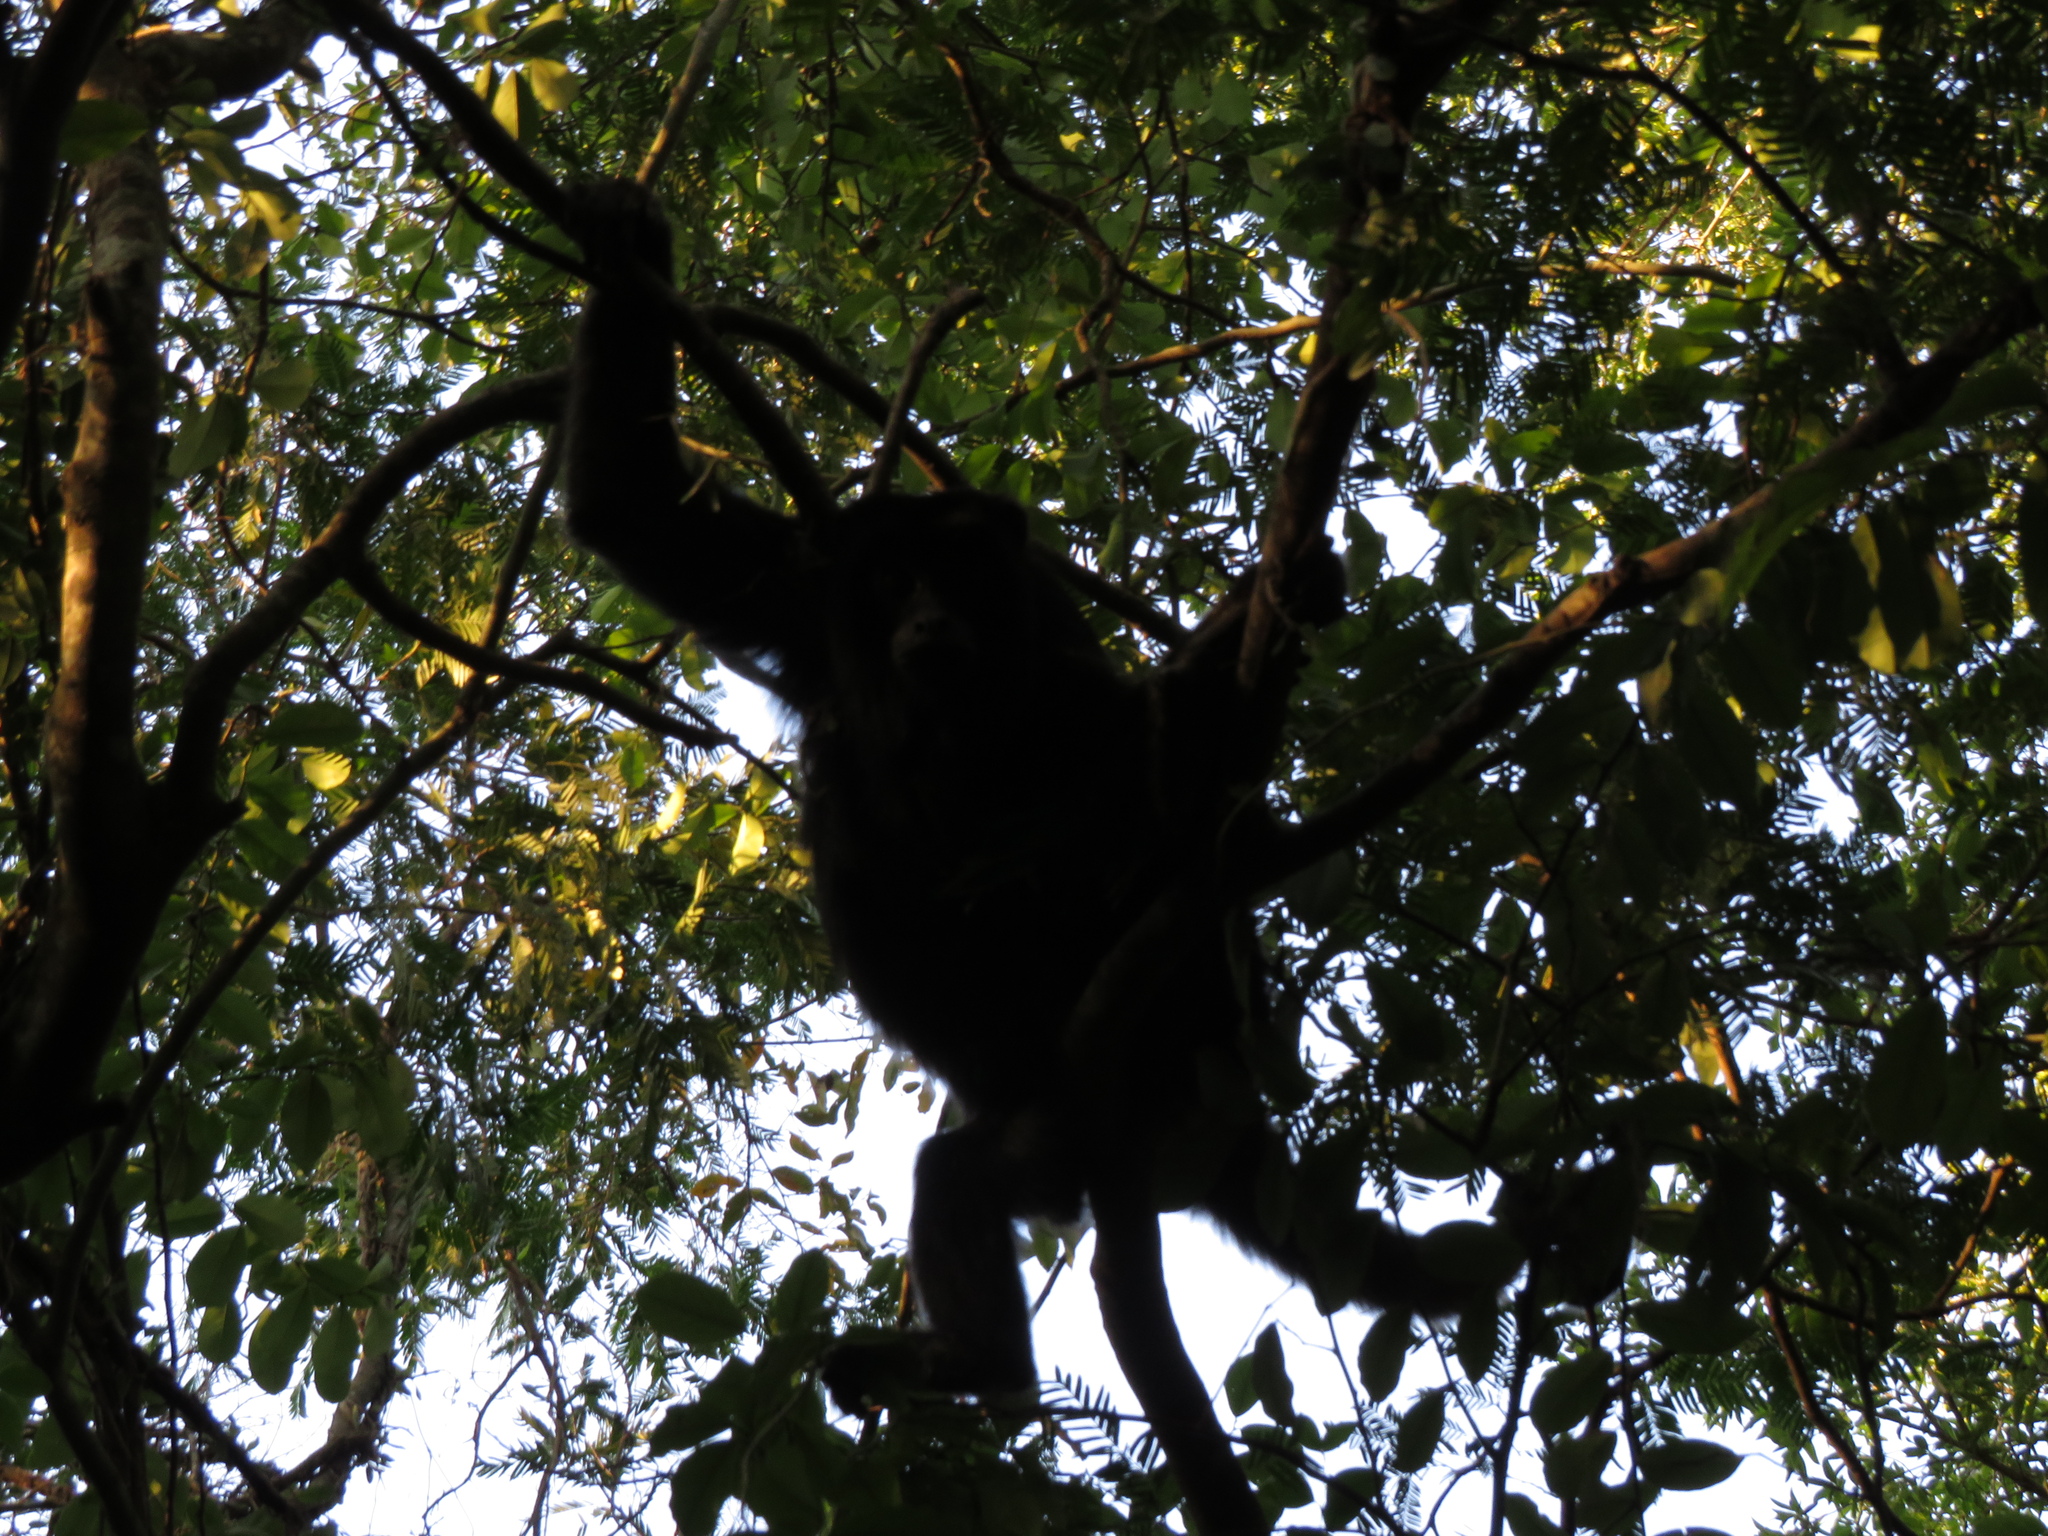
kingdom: Animalia
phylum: Chordata
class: Mammalia
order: Primates
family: Atelidae
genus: Alouatta
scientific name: Alouatta caraya
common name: Black howler
